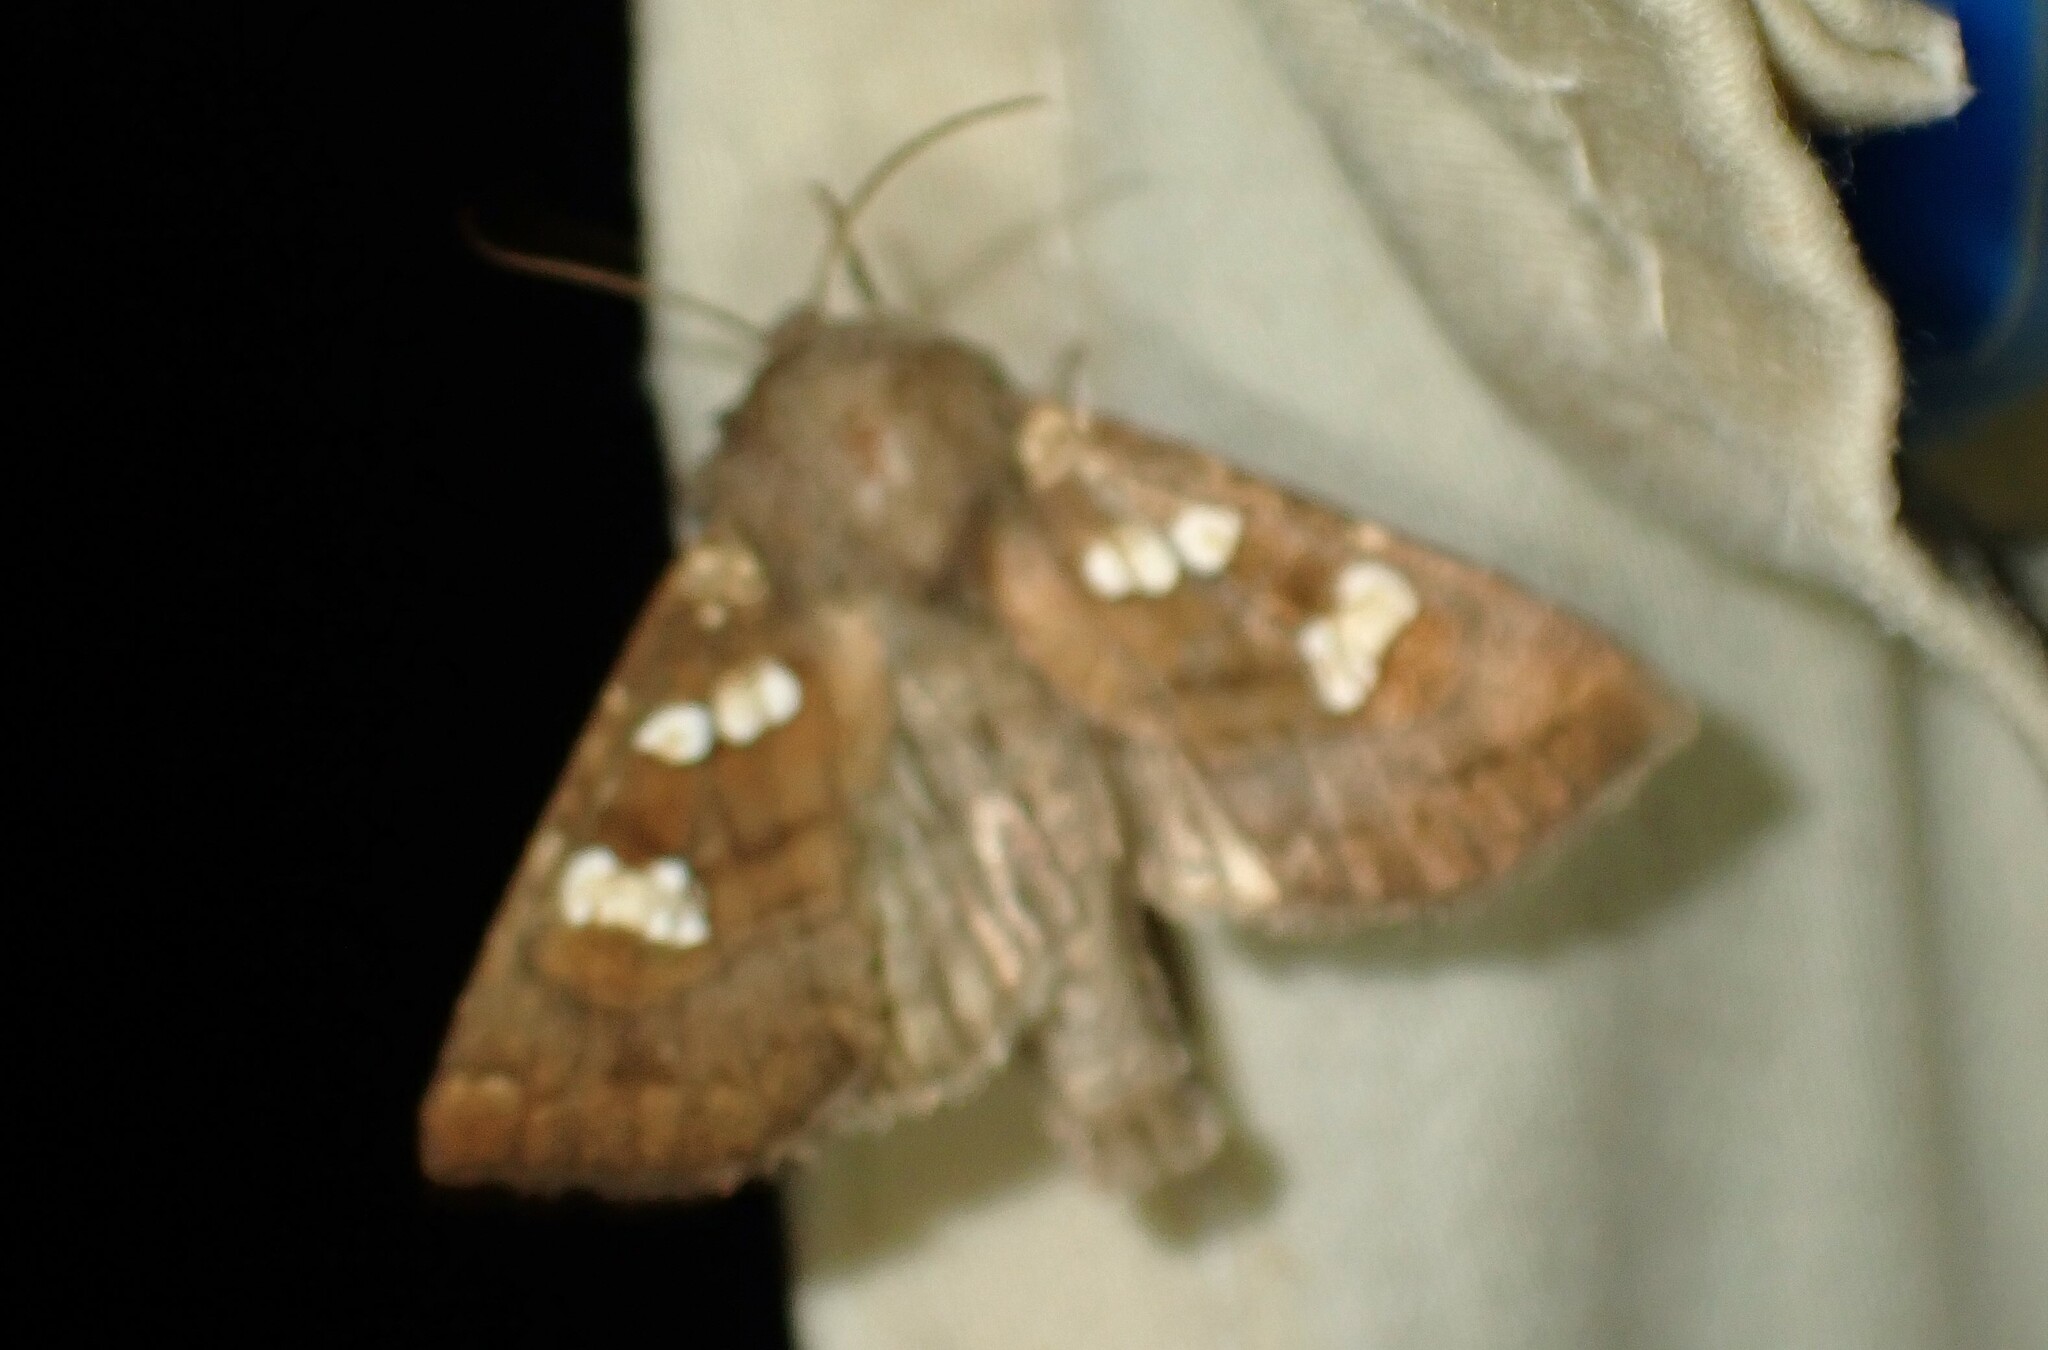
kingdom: Animalia
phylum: Arthropoda
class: Insecta
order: Lepidoptera
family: Noctuidae
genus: Papaipema
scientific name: Papaipema unimoda
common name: Meadow rue borer moth
